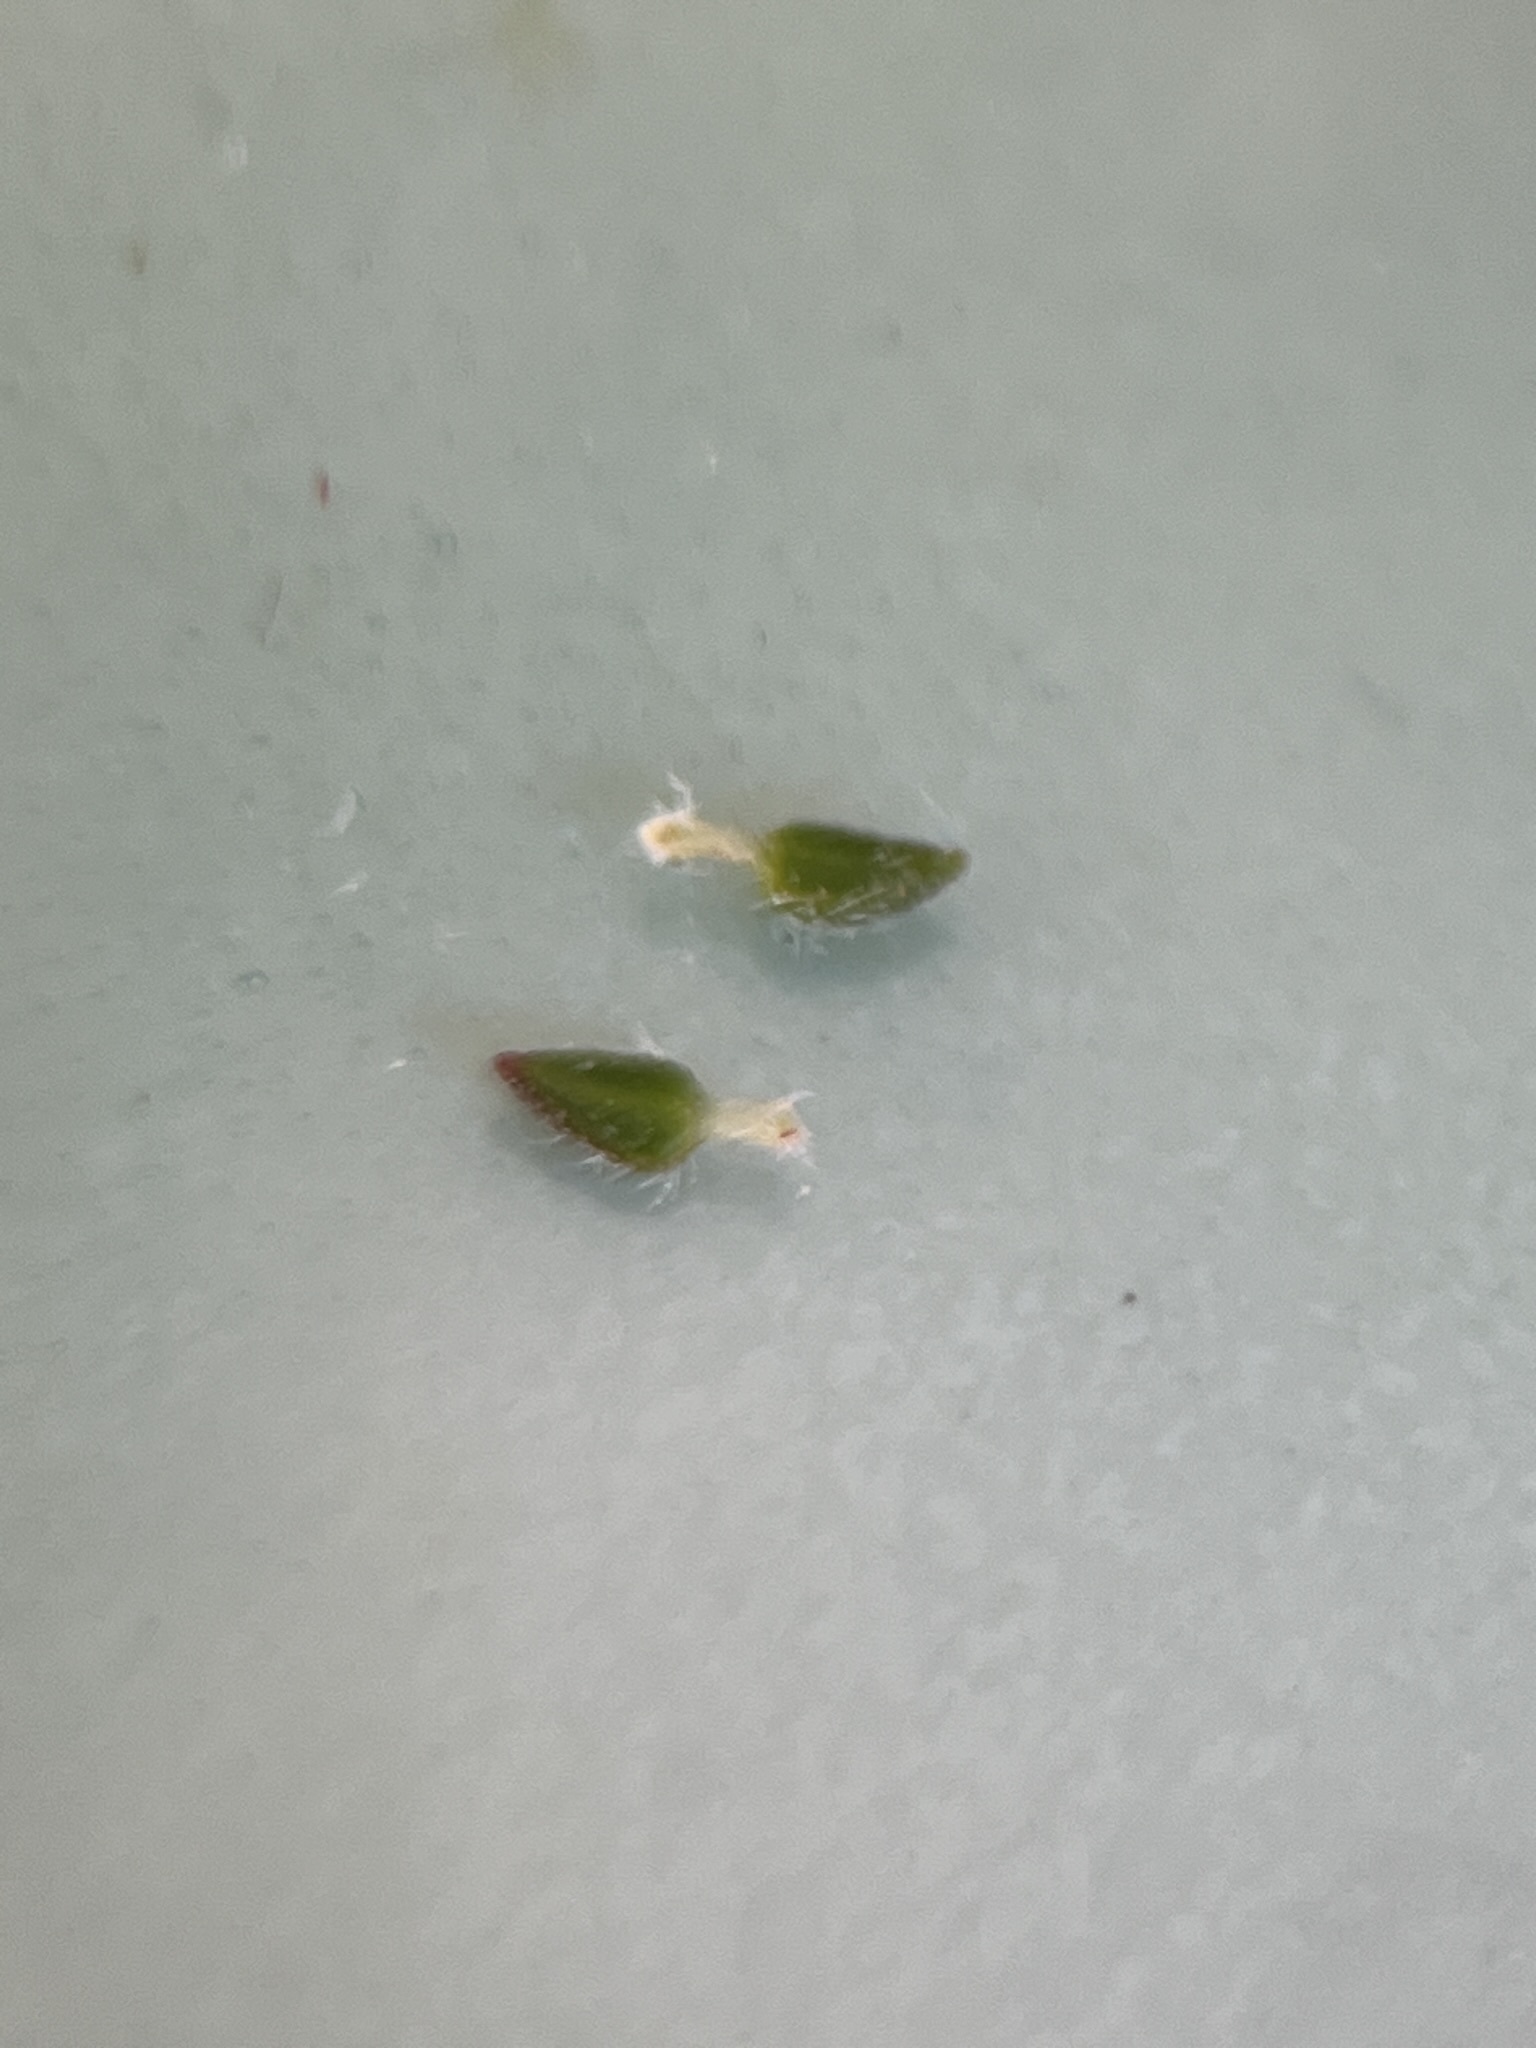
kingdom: Plantae
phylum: Tracheophyta
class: Magnoliopsida
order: Ericales
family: Ericaceae
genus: Erica
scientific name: Erica globiceps
